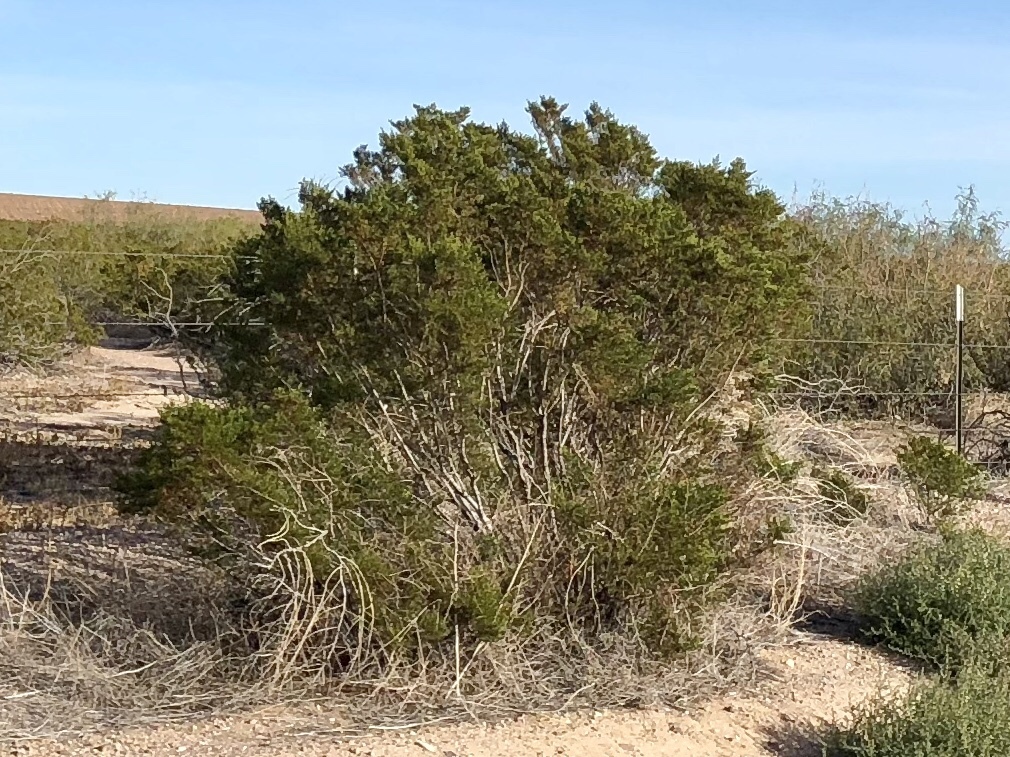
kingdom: Plantae
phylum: Tracheophyta
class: Magnoliopsida
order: Zygophyllales
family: Zygophyllaceae
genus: Larrea
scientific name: Larrea tridentata
